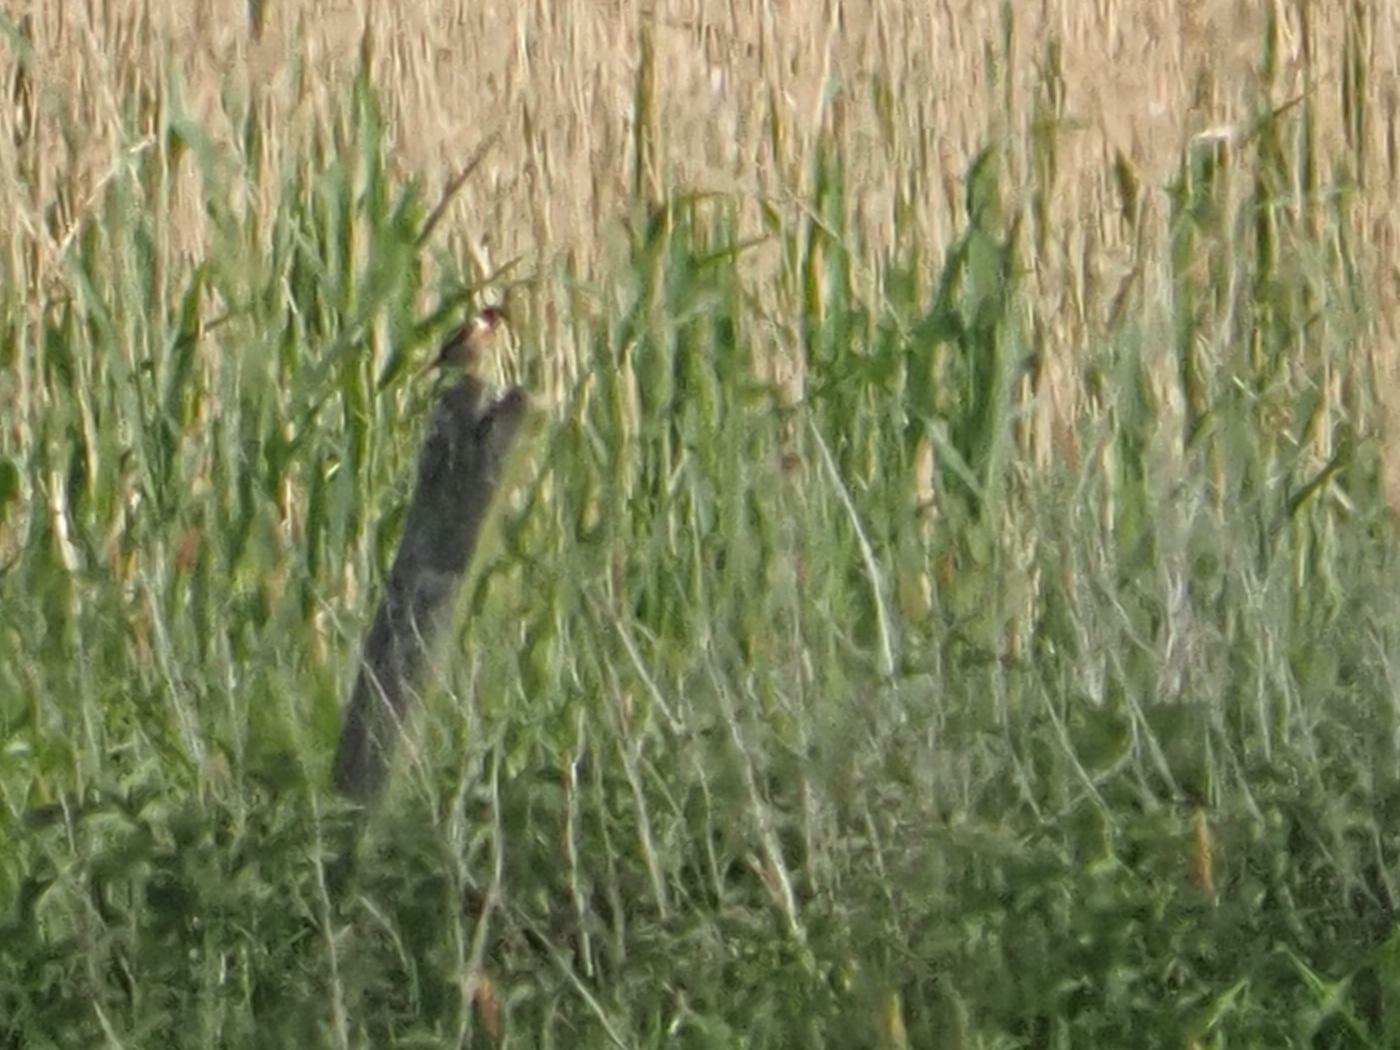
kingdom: Animalia
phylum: Chordata
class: Aves
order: Passeriformes
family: Muscicapidae
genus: Saxicola
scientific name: Saxicola rubicola
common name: European stonechat
